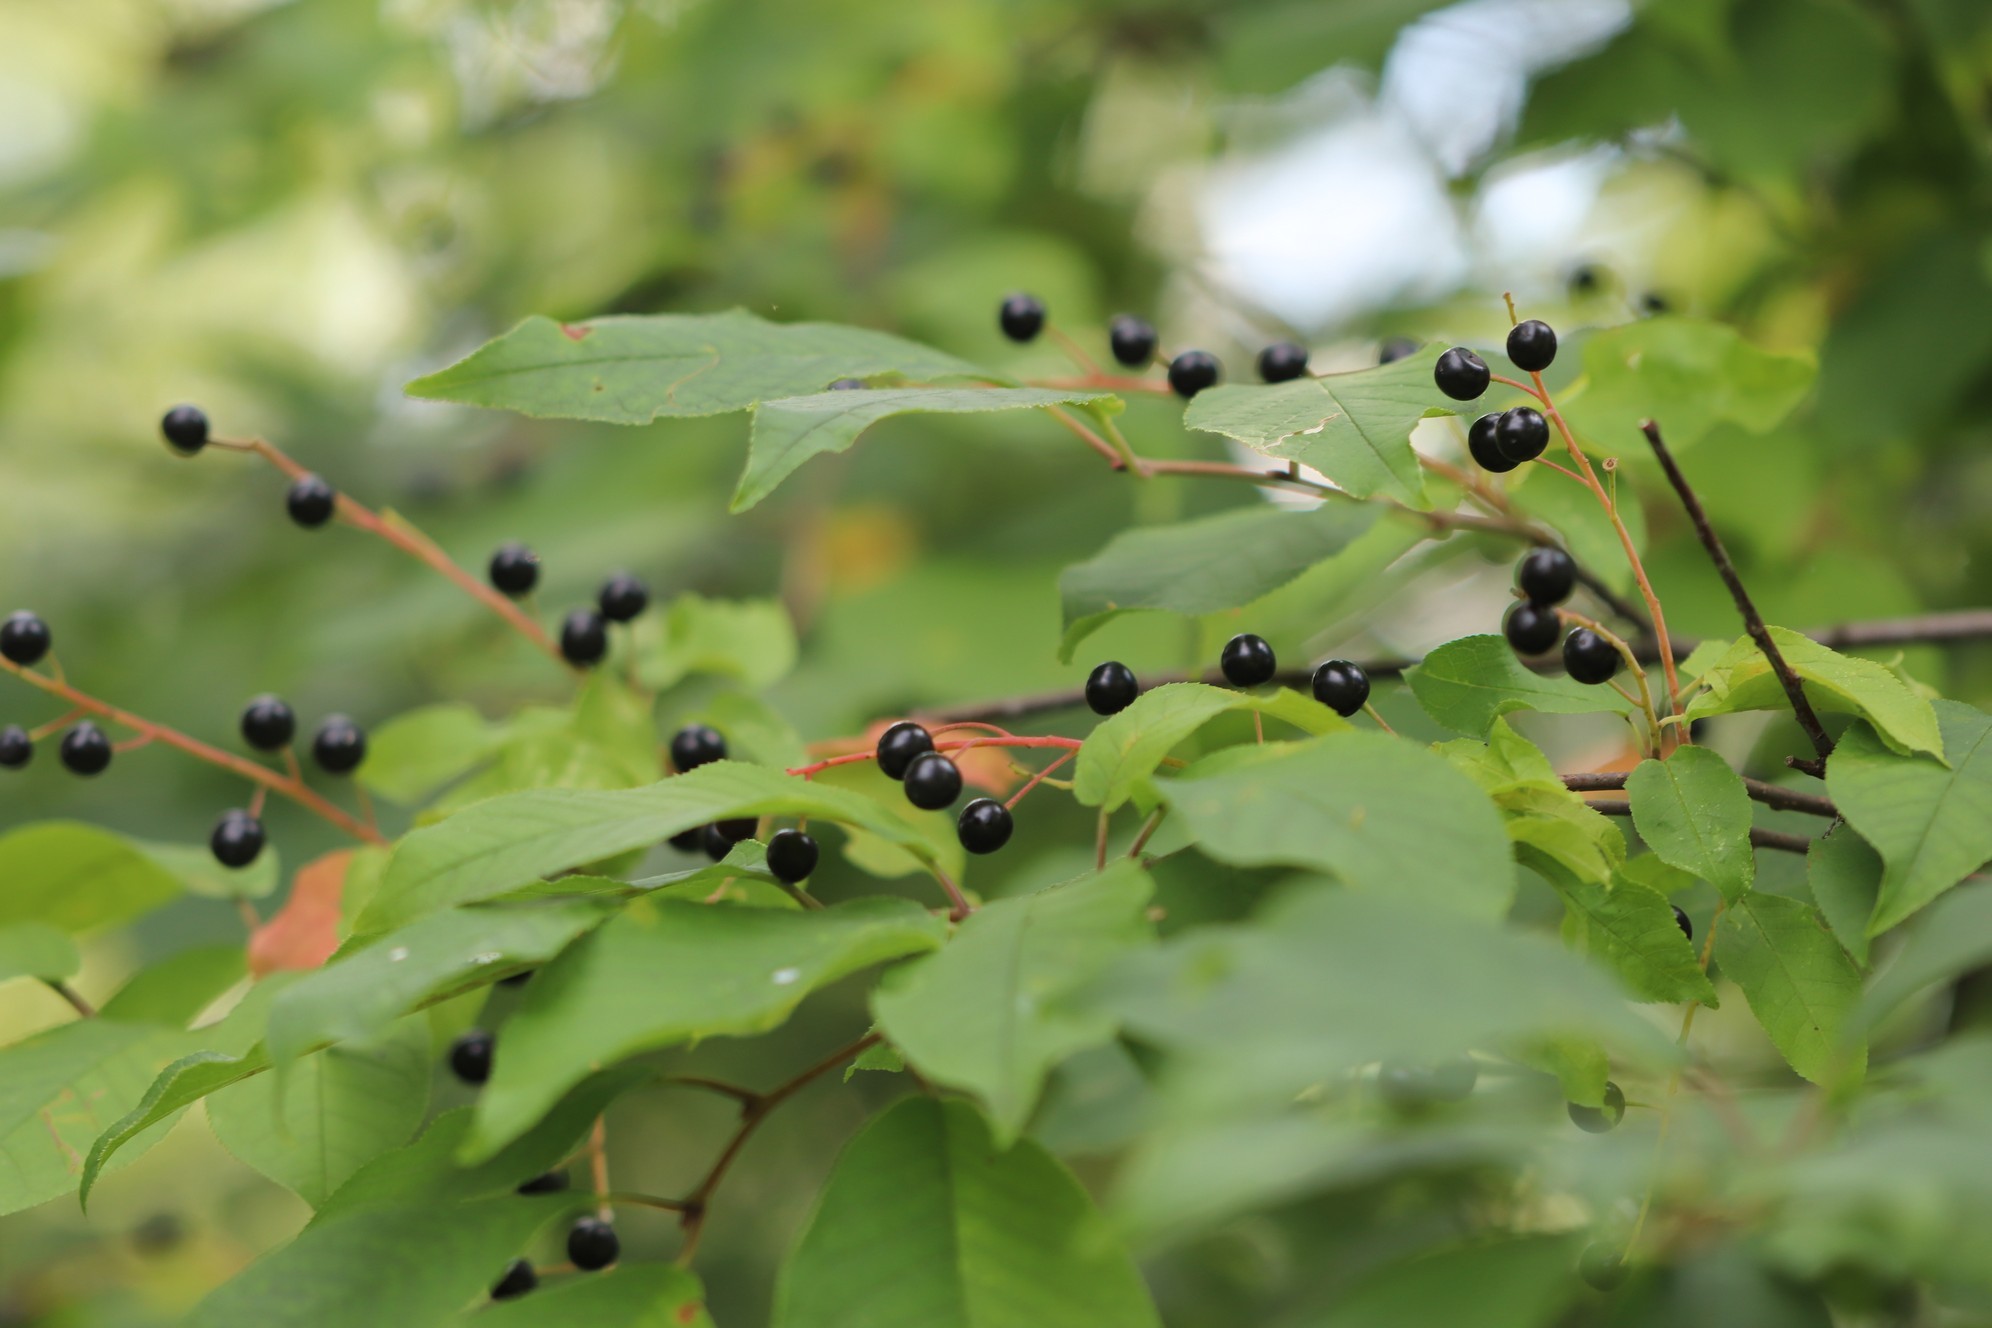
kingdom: Plantae
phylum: Tracheophyta
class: Magnoliopsida
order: Rosales
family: Rosaceae
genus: Prunus
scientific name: Prunus padus
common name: Bird cherry
